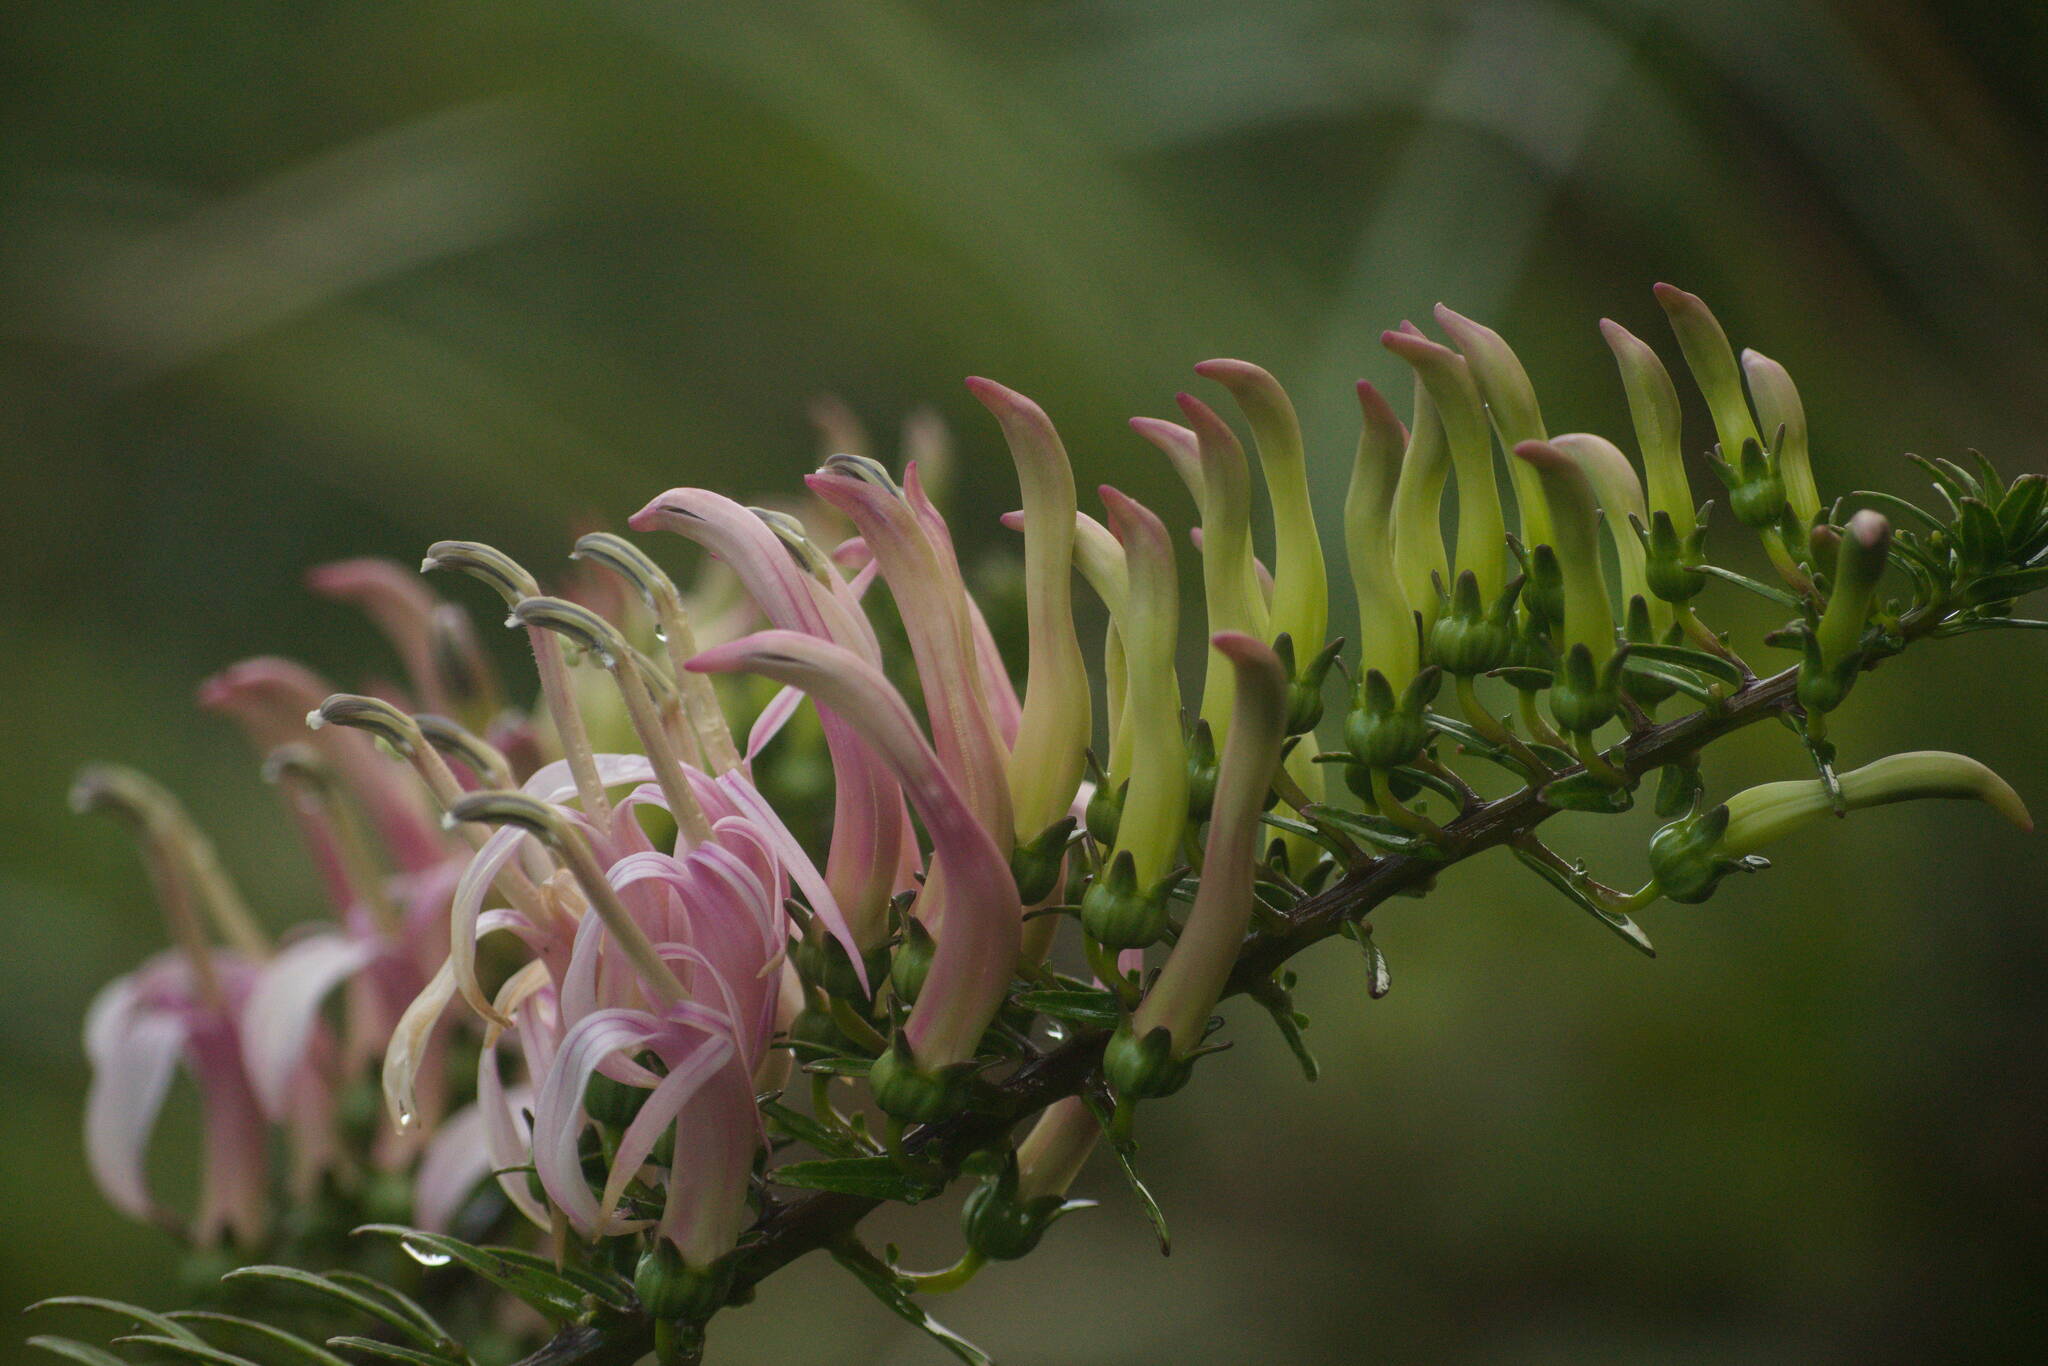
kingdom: Plantae
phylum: Tracheophyta
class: Magnoliopsida
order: Asterales
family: Campanulaceae
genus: Trematolobelia
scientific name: Trematolobelia macrostachys
